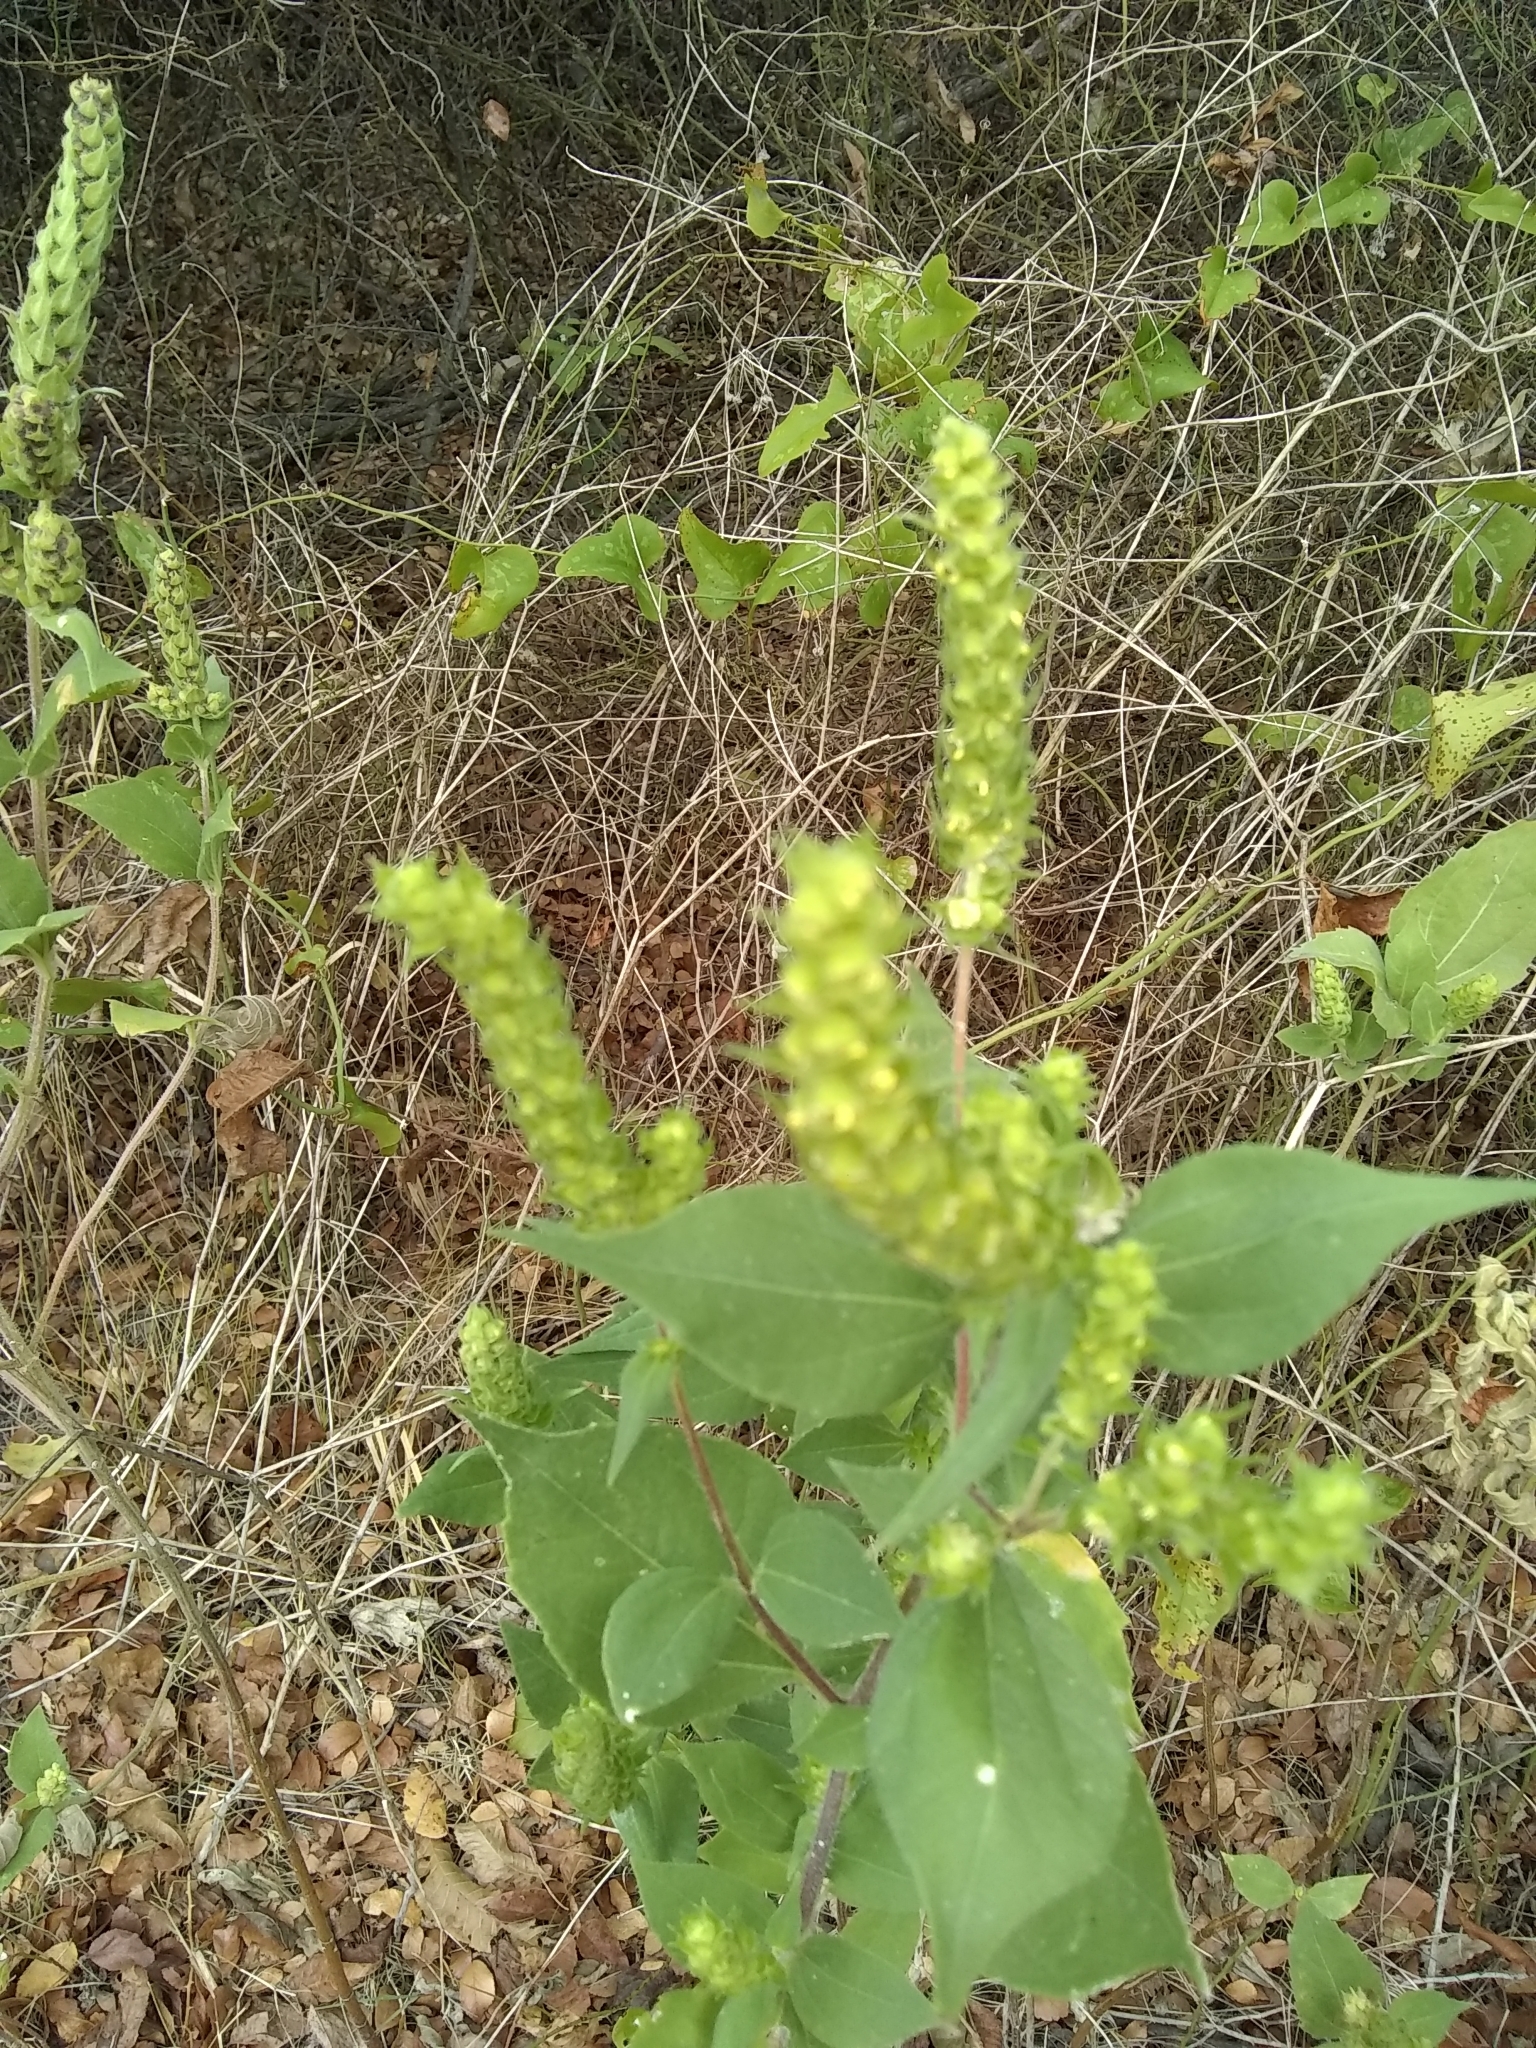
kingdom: Plantae
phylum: Tracheophyta
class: Magnoliopsida
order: Asterales
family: Asteraceae
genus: Iva
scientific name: Iva annua
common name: Marsh-elder
